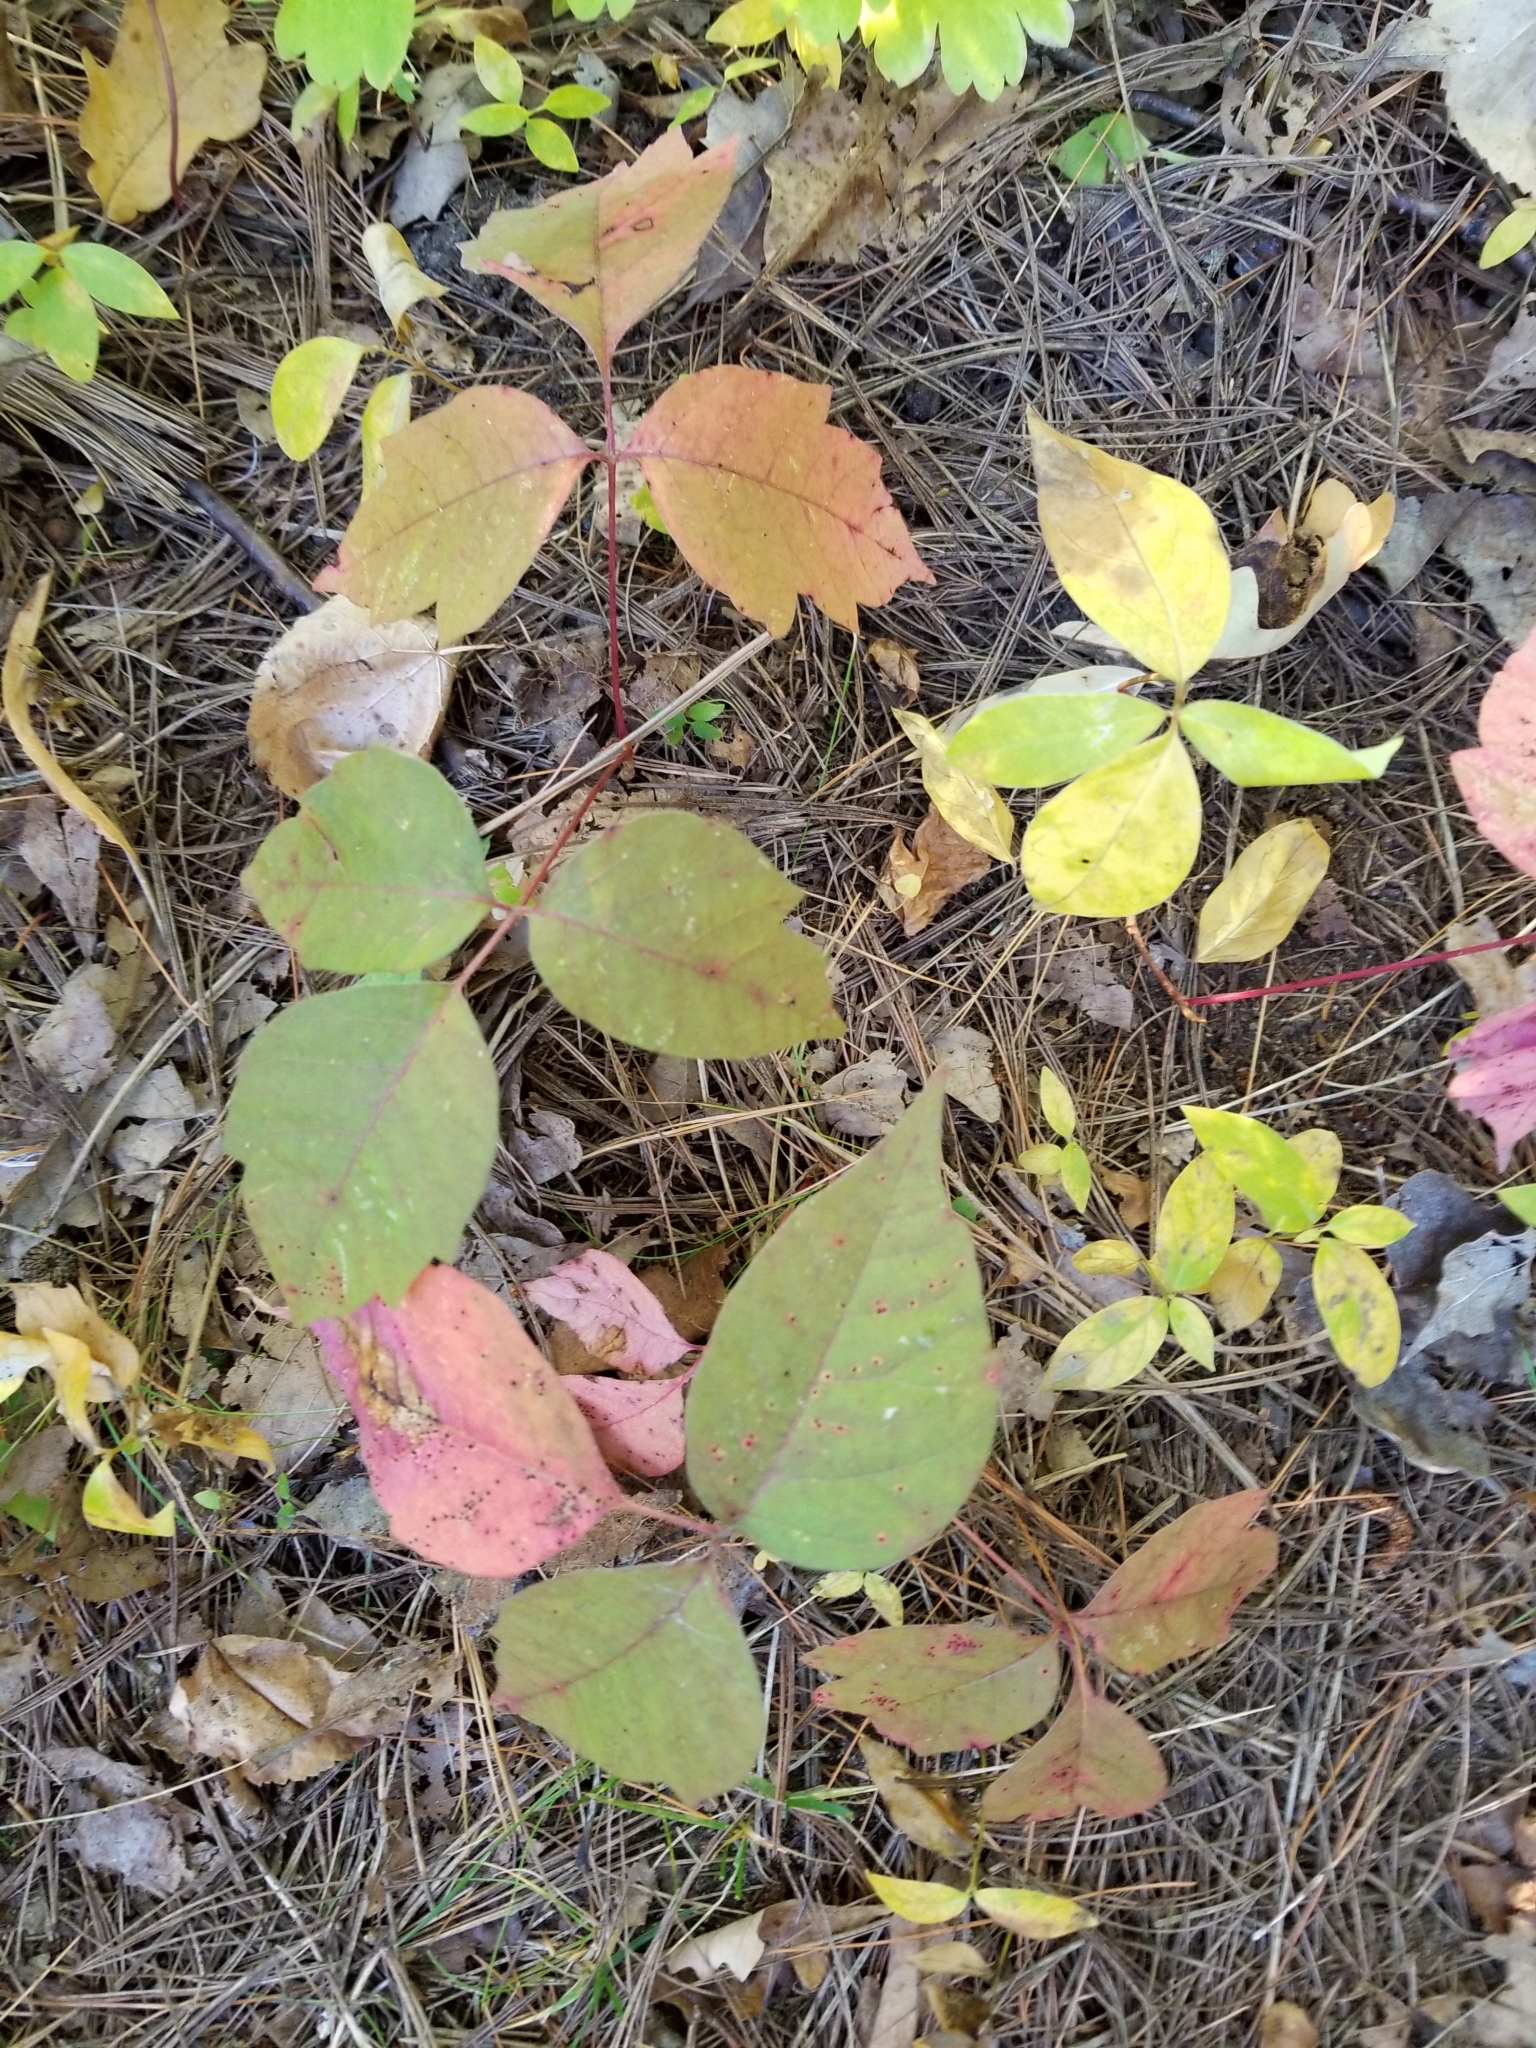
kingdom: Plantae
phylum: Tracheophyta
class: Magnoliopsida
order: Sapindales
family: Anacardiaceae
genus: Toxicodendron
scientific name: Toxicodendron radicans
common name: Poison ivy
